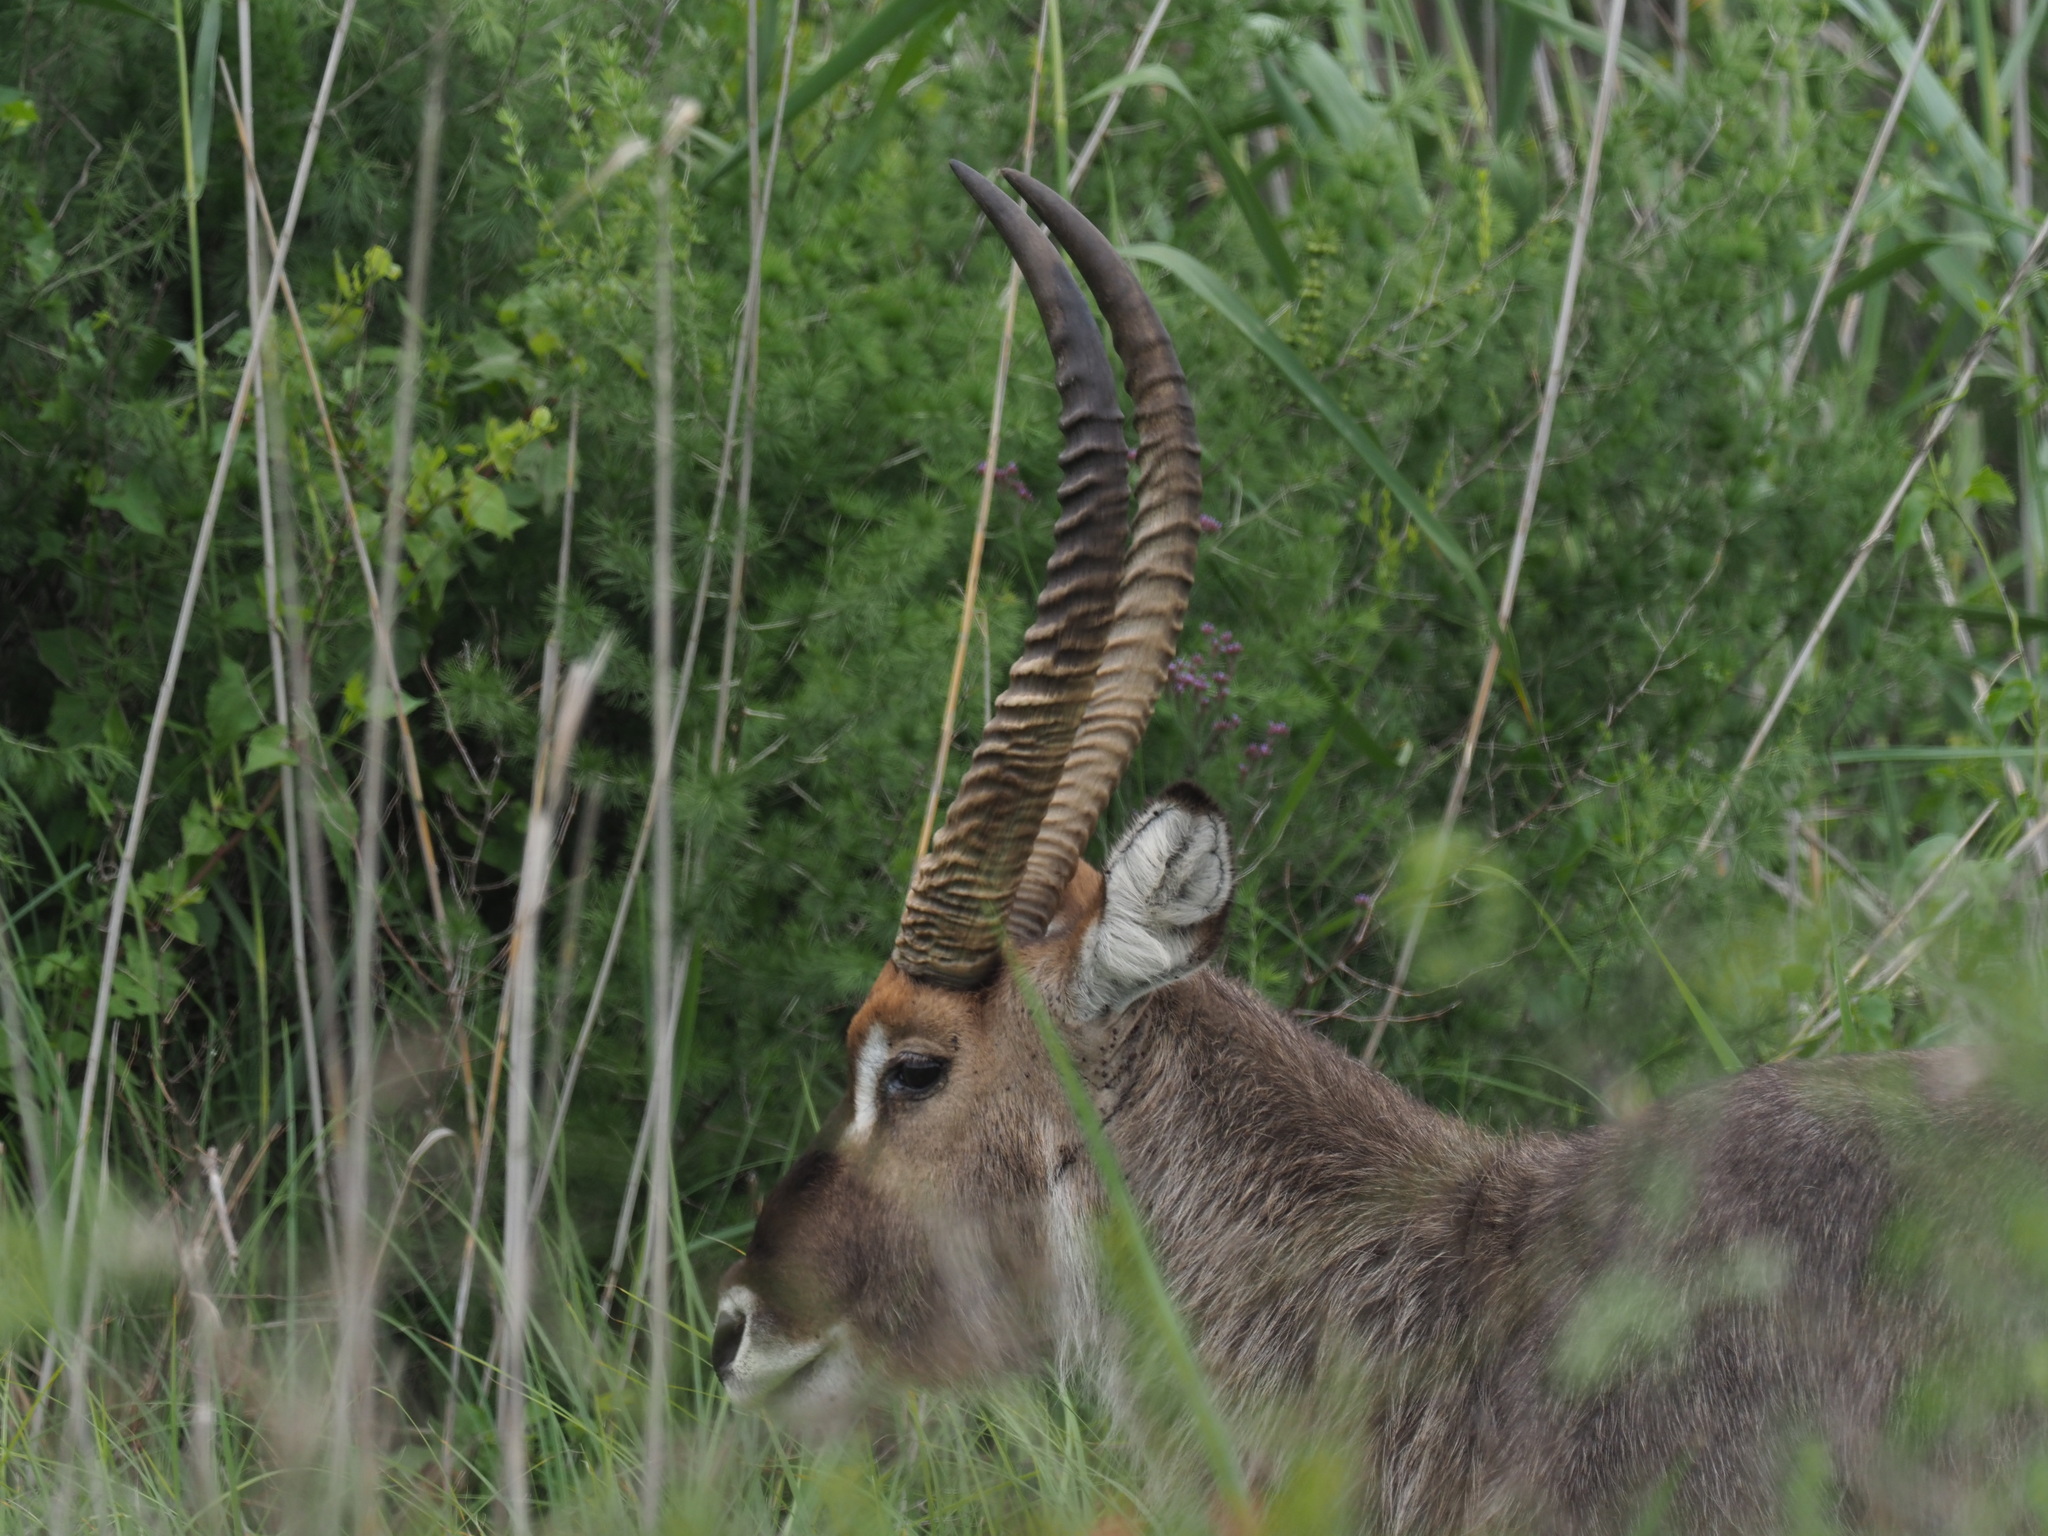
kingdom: Animalia
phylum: Chordata
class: Mammalia
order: Artiodactyla
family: Bovidae
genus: Kobus
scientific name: Kobus ellipsiprymnus
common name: Waterbuck
